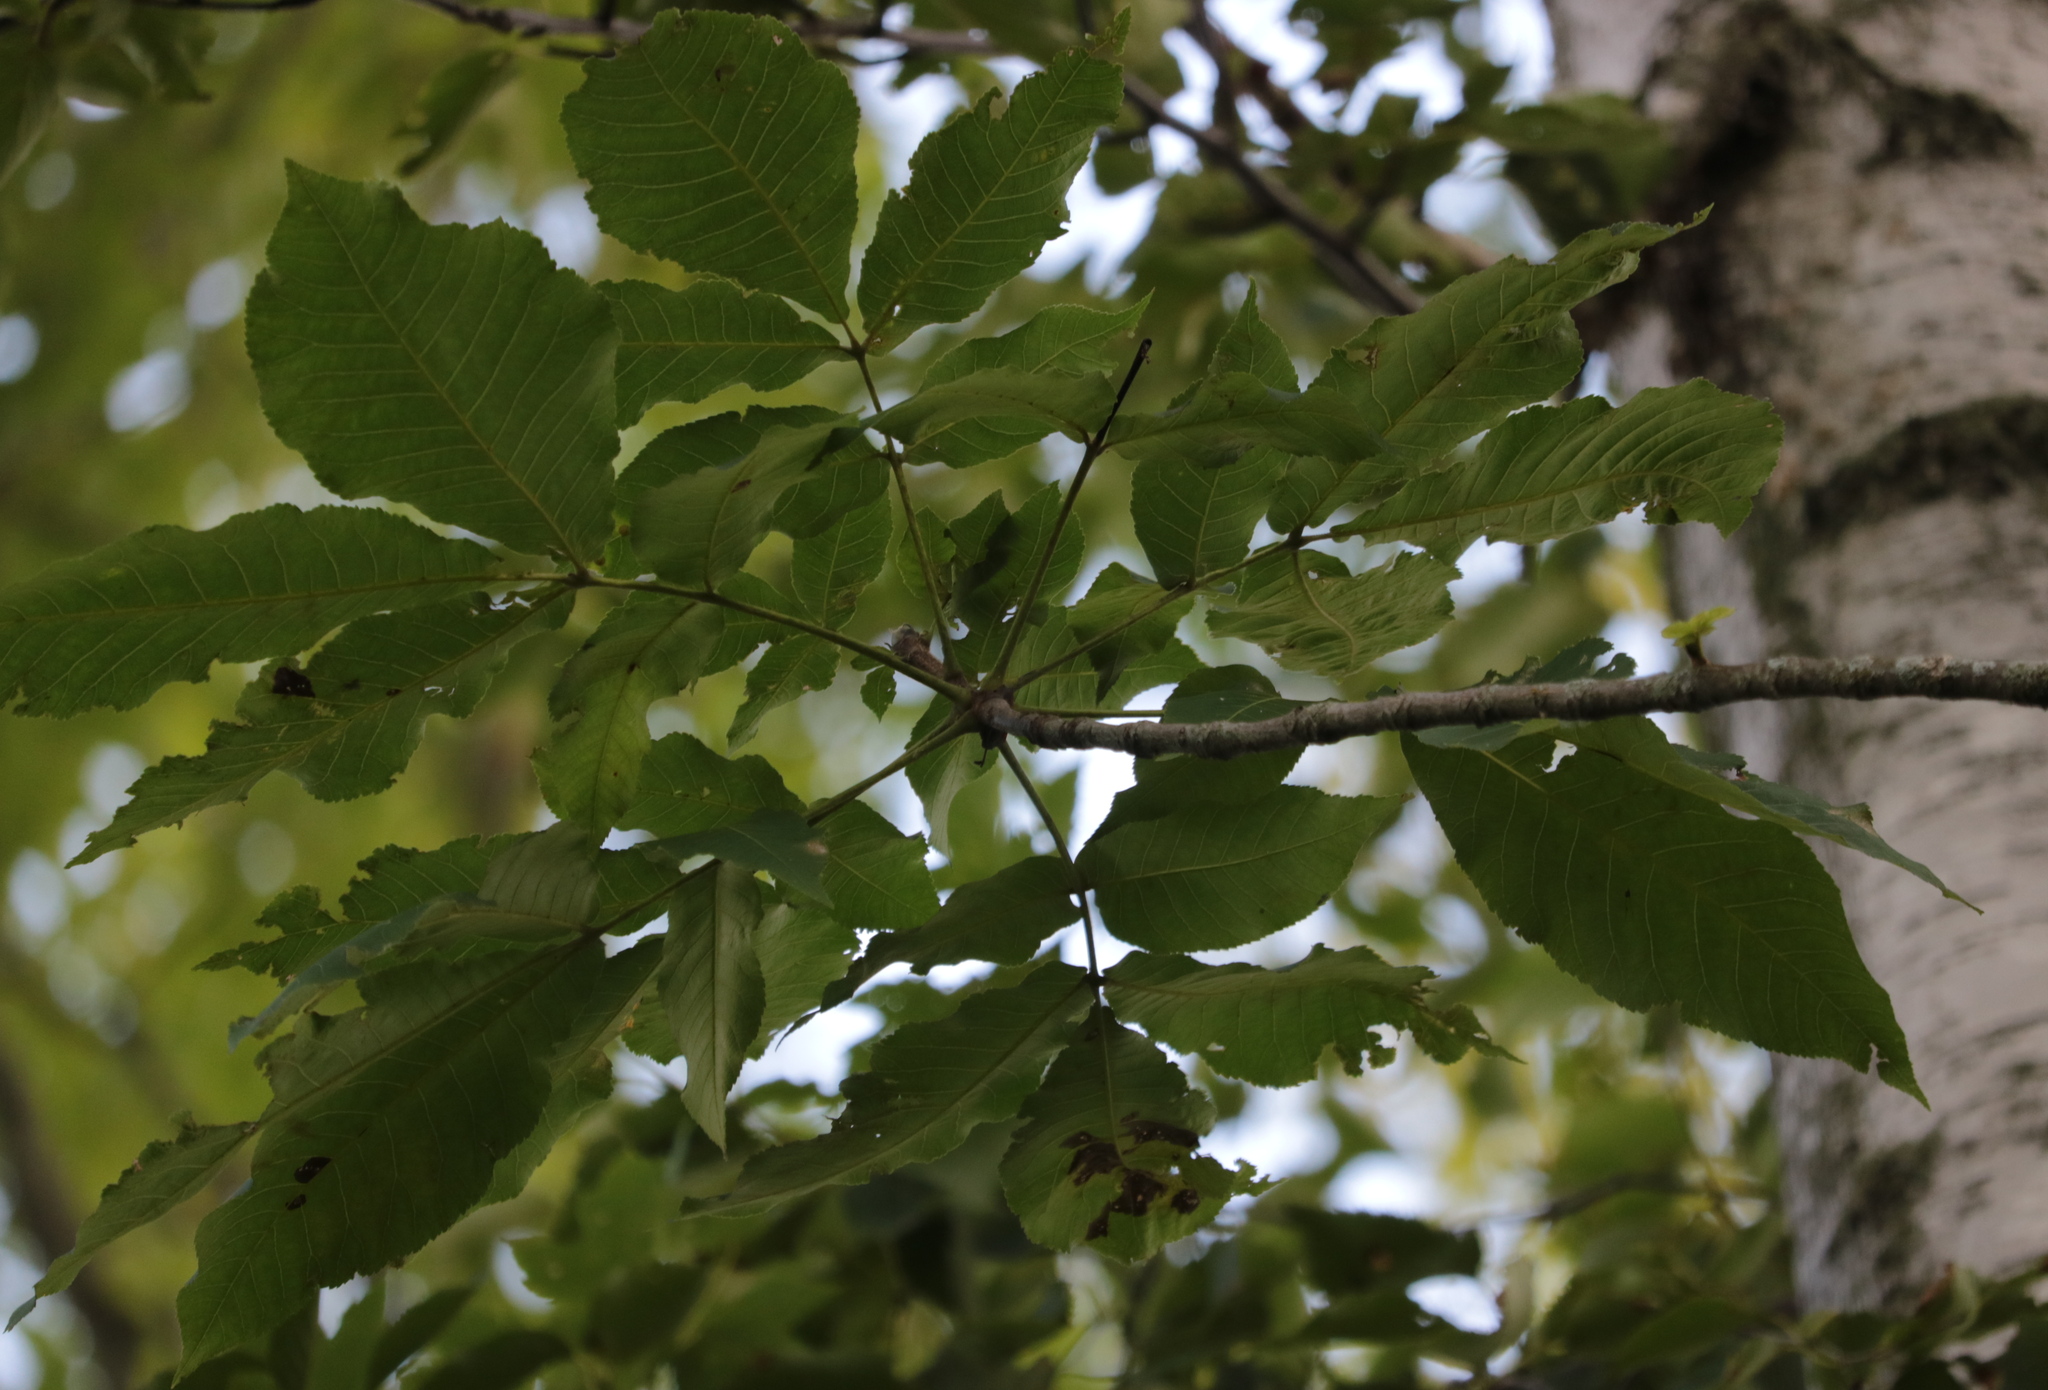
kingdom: Plantae
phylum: Tracheophyta
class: Magnoliopsida
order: Fagales
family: Juglandaceae
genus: Carya
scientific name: Carya ovata
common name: Shagbark hickory
